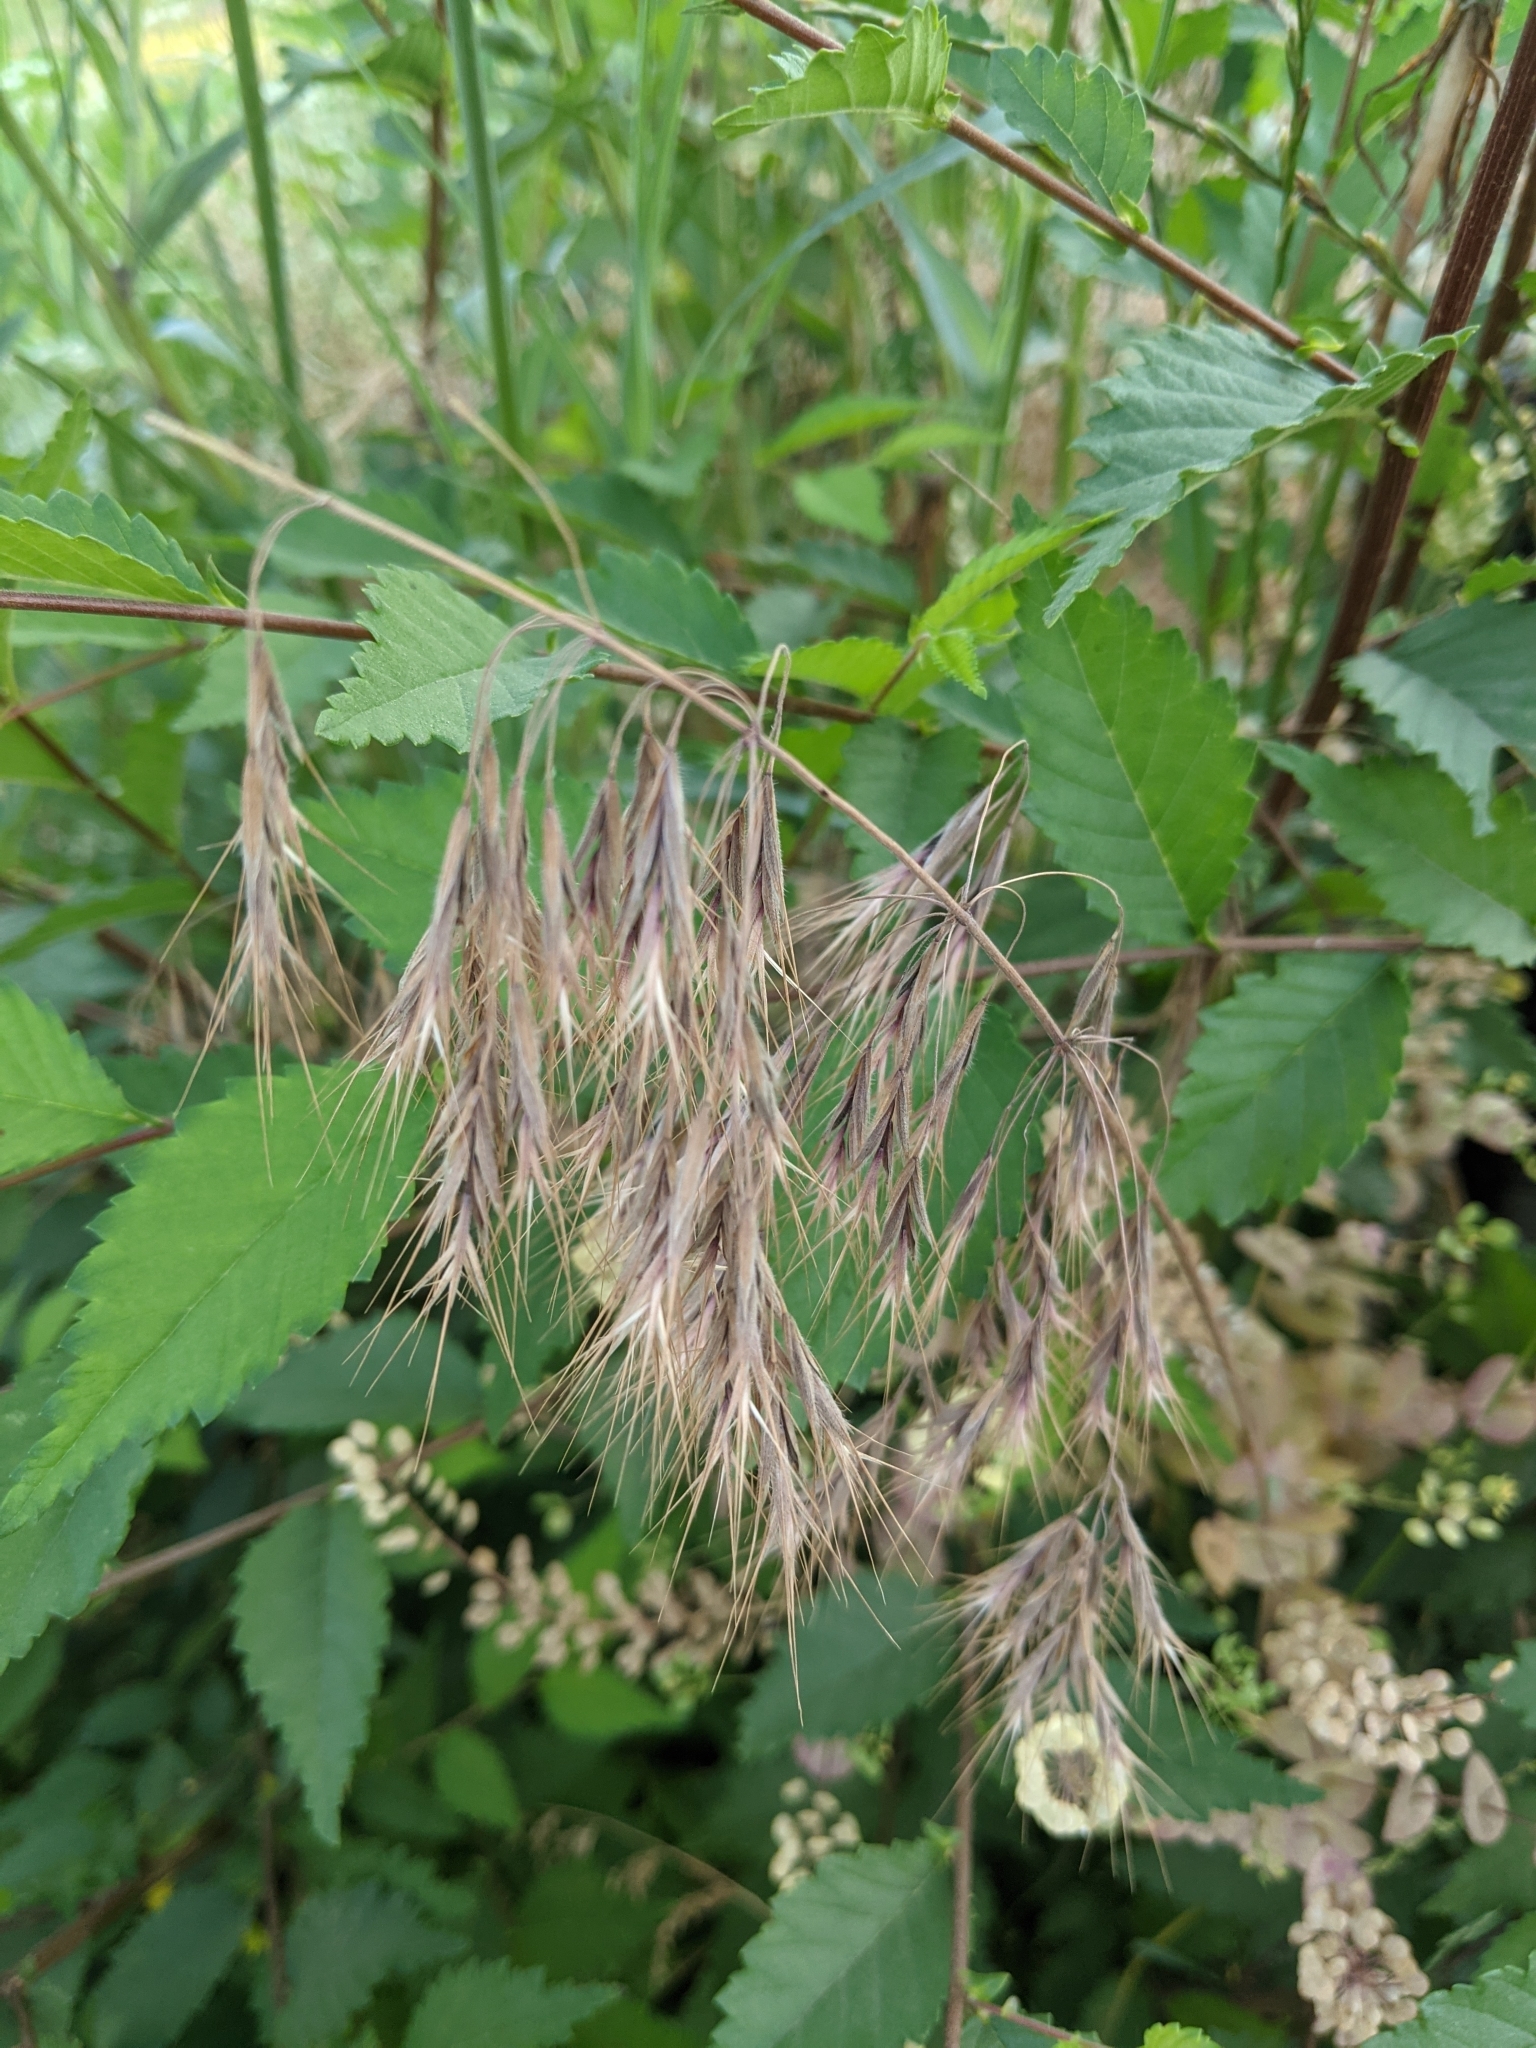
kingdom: Plantae
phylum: Tracheophyta
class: Liliopsida
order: Poales
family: Poaceae
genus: Bromus
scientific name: Bromus tectorum
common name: Cheatgrass
